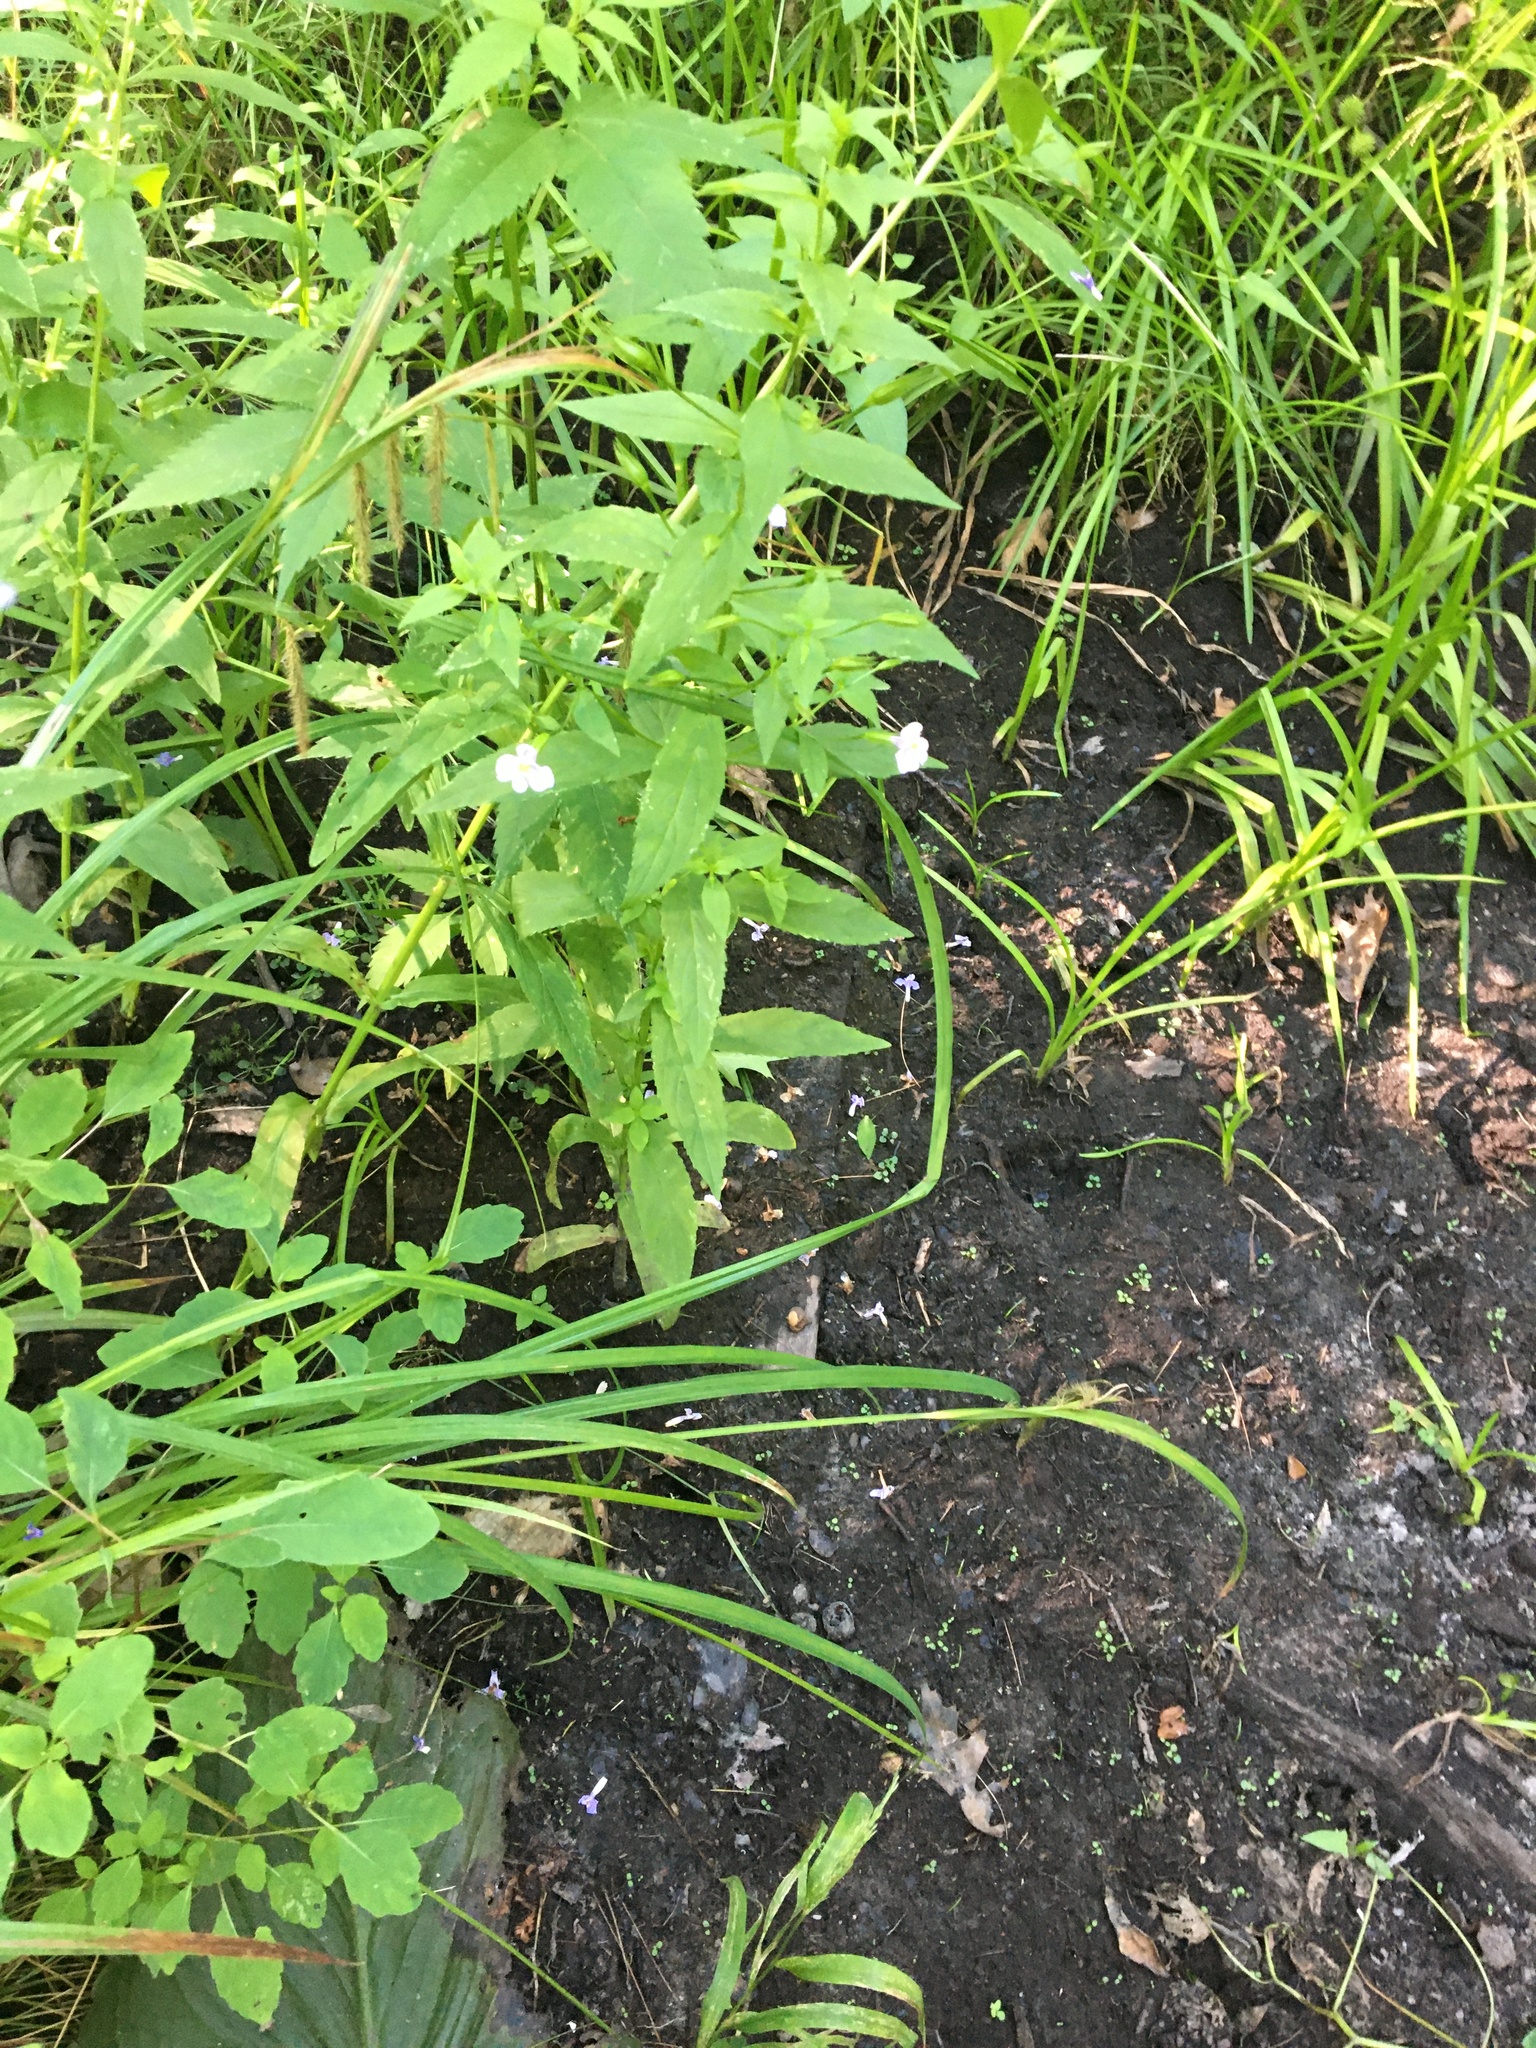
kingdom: Plantae
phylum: Tracheophyta
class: Magnoliopsida
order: Lamiales
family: Phrymaceae
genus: Mimulus
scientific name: Mimulus ringens
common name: Allegheny monkeyflower
